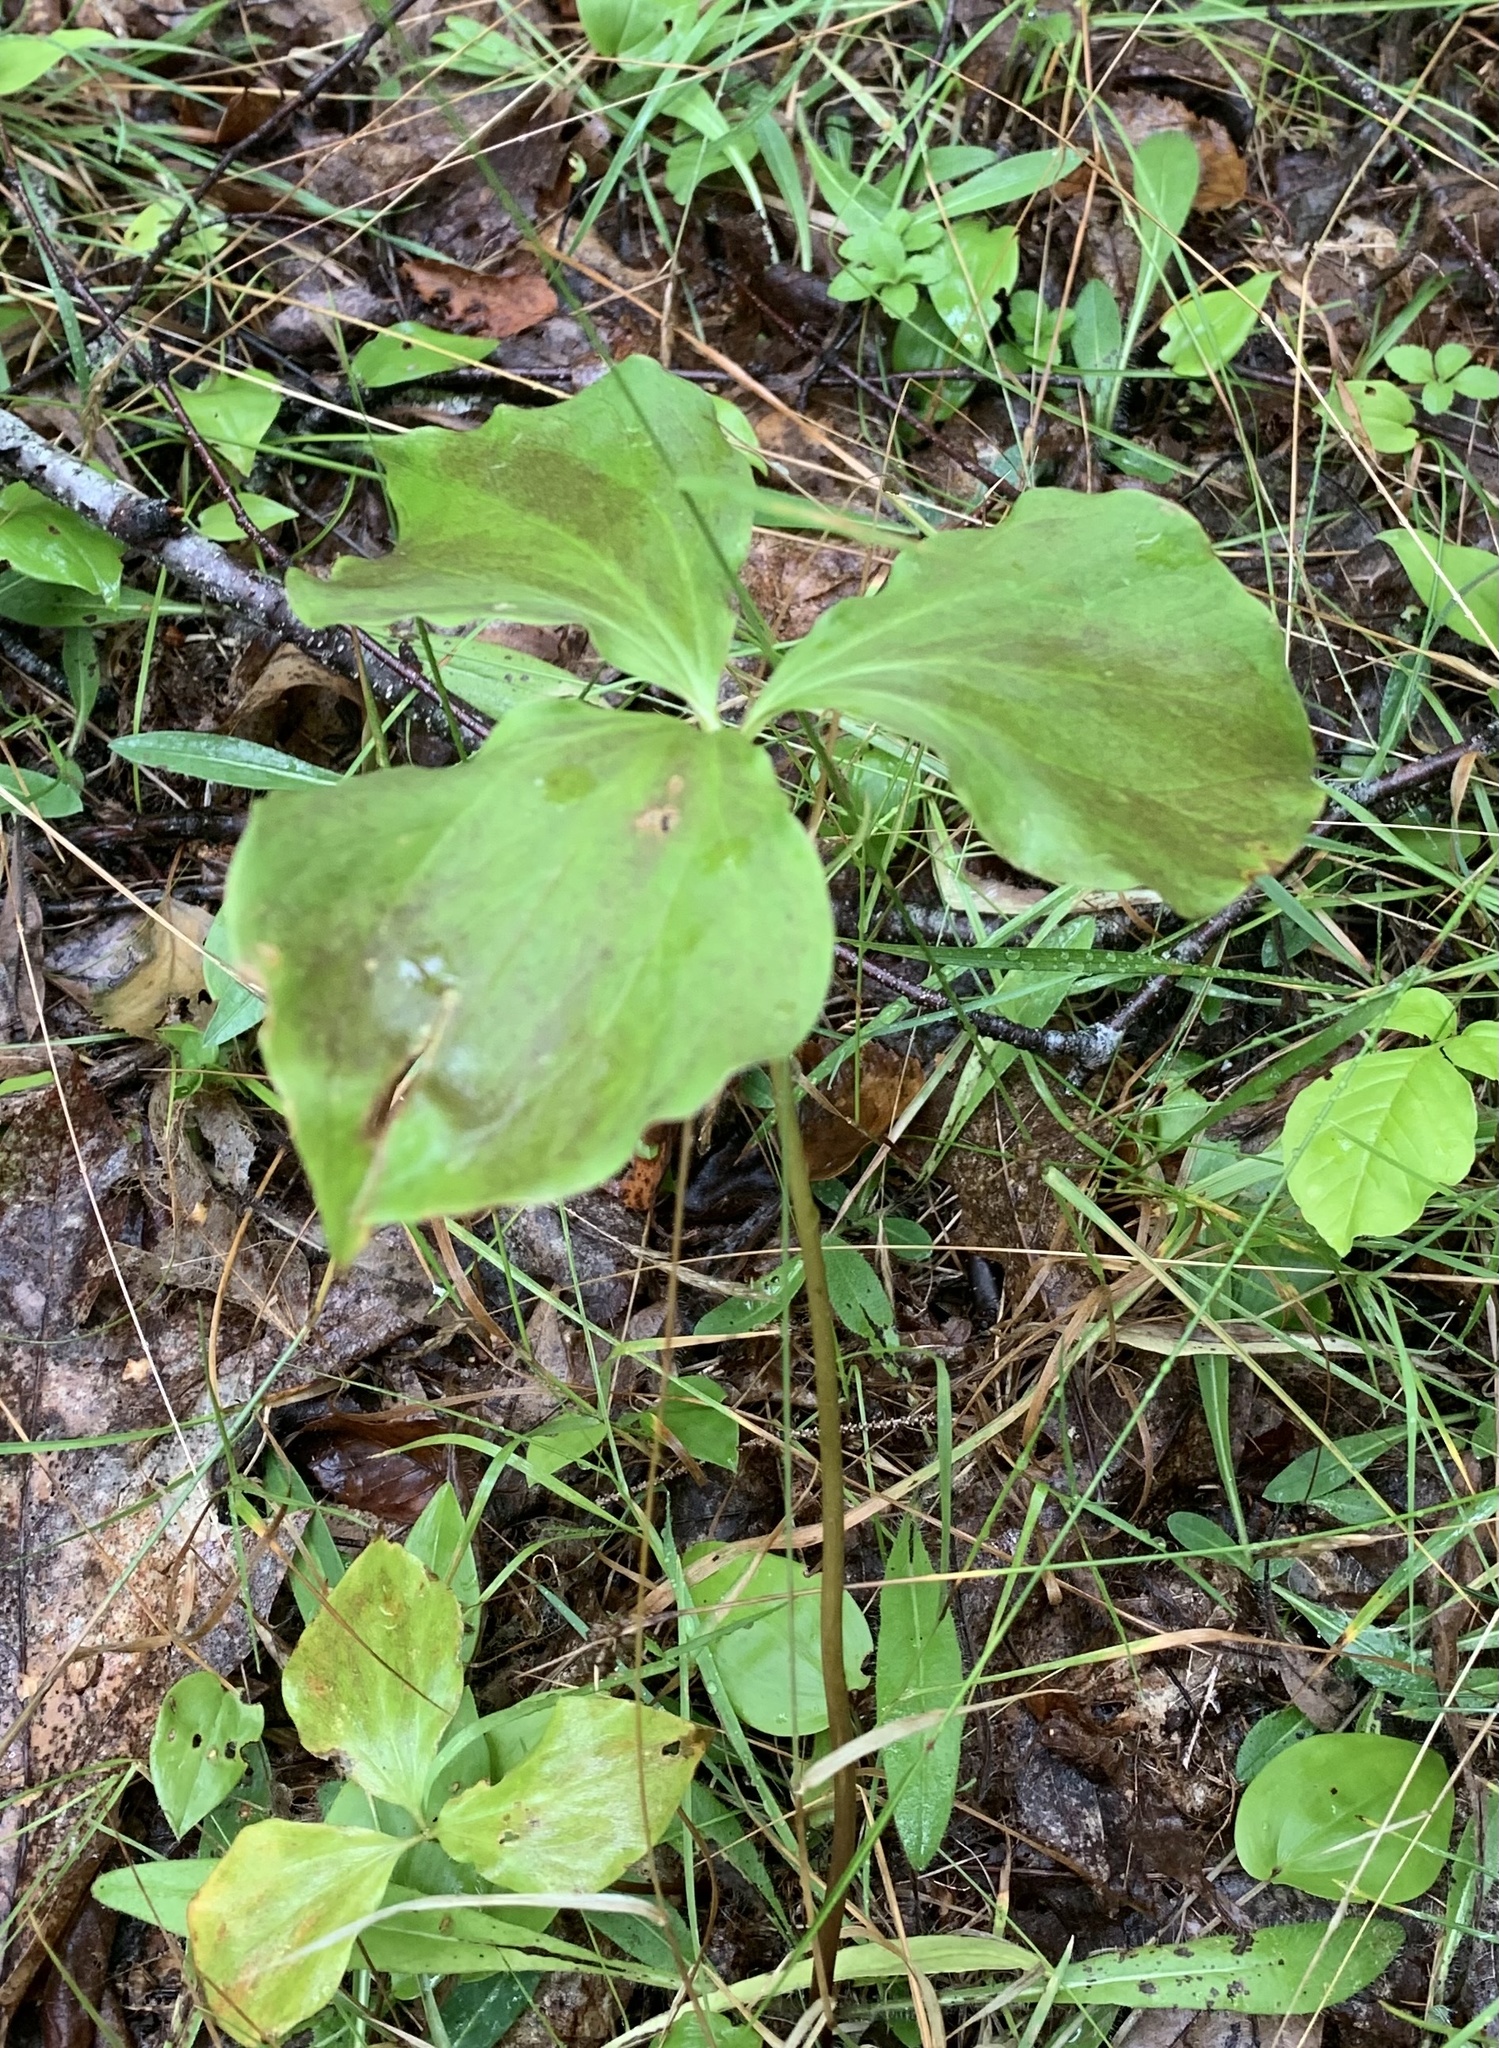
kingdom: Plantae
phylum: Tracheophyta
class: Liliopsida
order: Liliales
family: Melanthiaceae
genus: Trillium
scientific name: Trillium cernuum
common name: Nodding trillium
